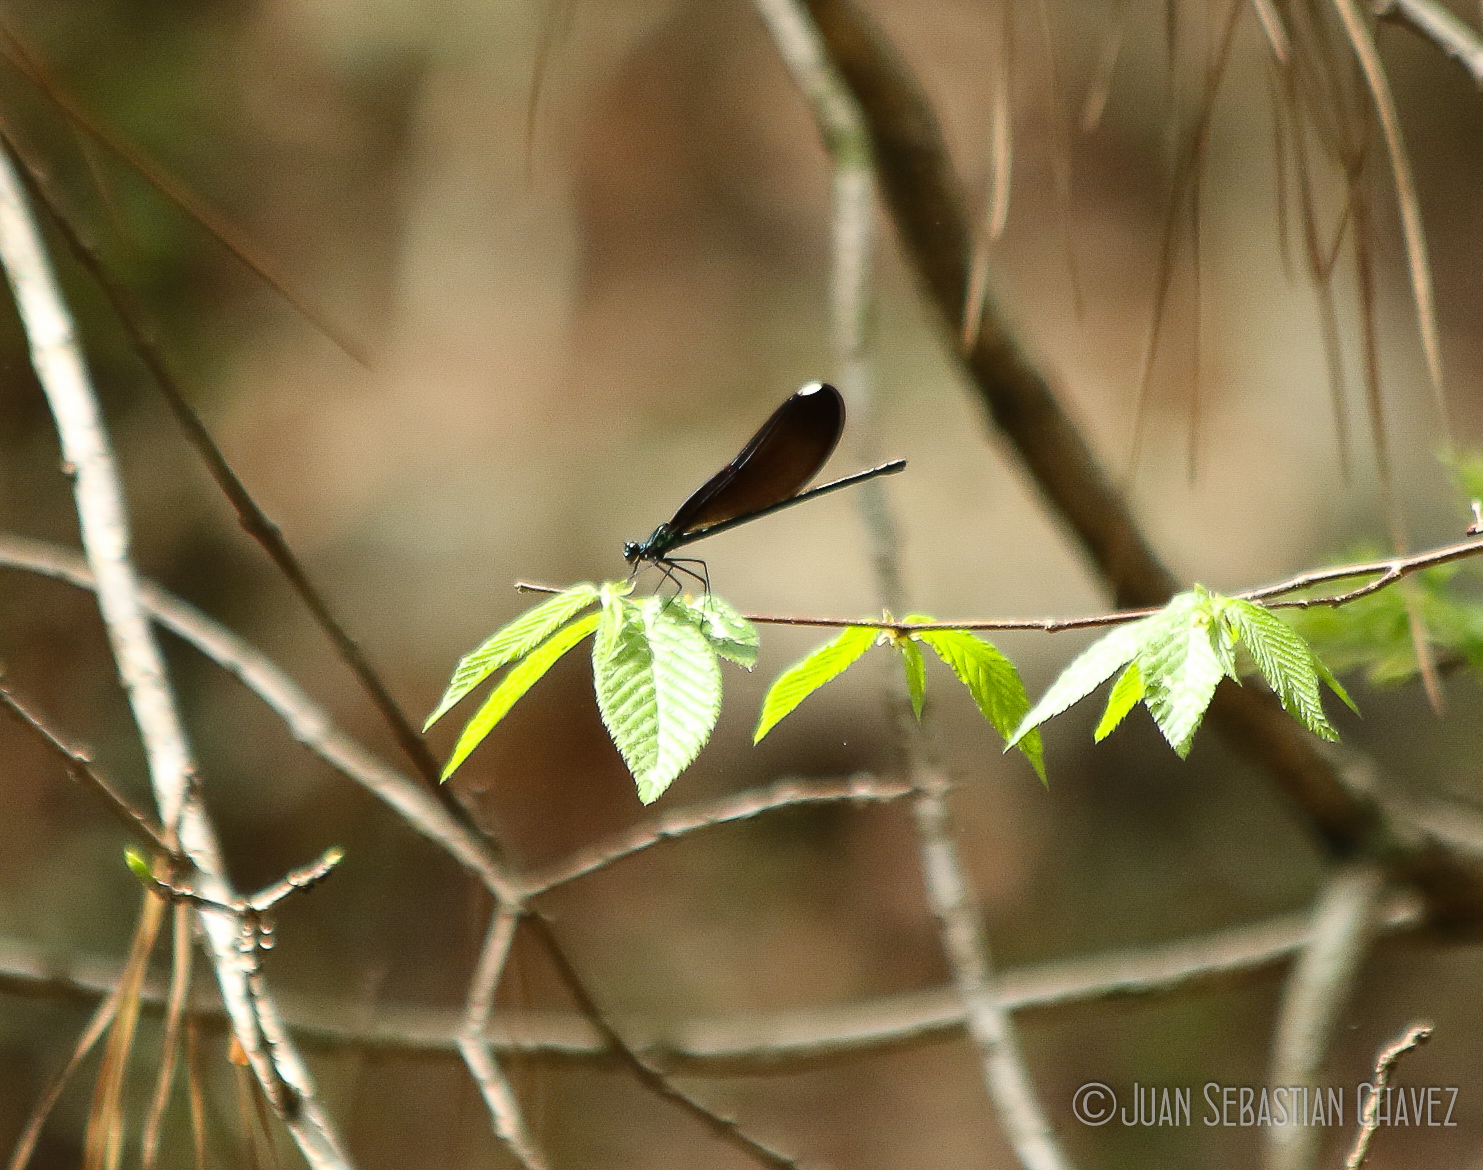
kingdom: Animalia
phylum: Arthropoda
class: Insecta
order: Odonata
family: Calopterygidae
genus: Calopteryx
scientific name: Calopteryx maculata
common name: Ebony jewelwing
